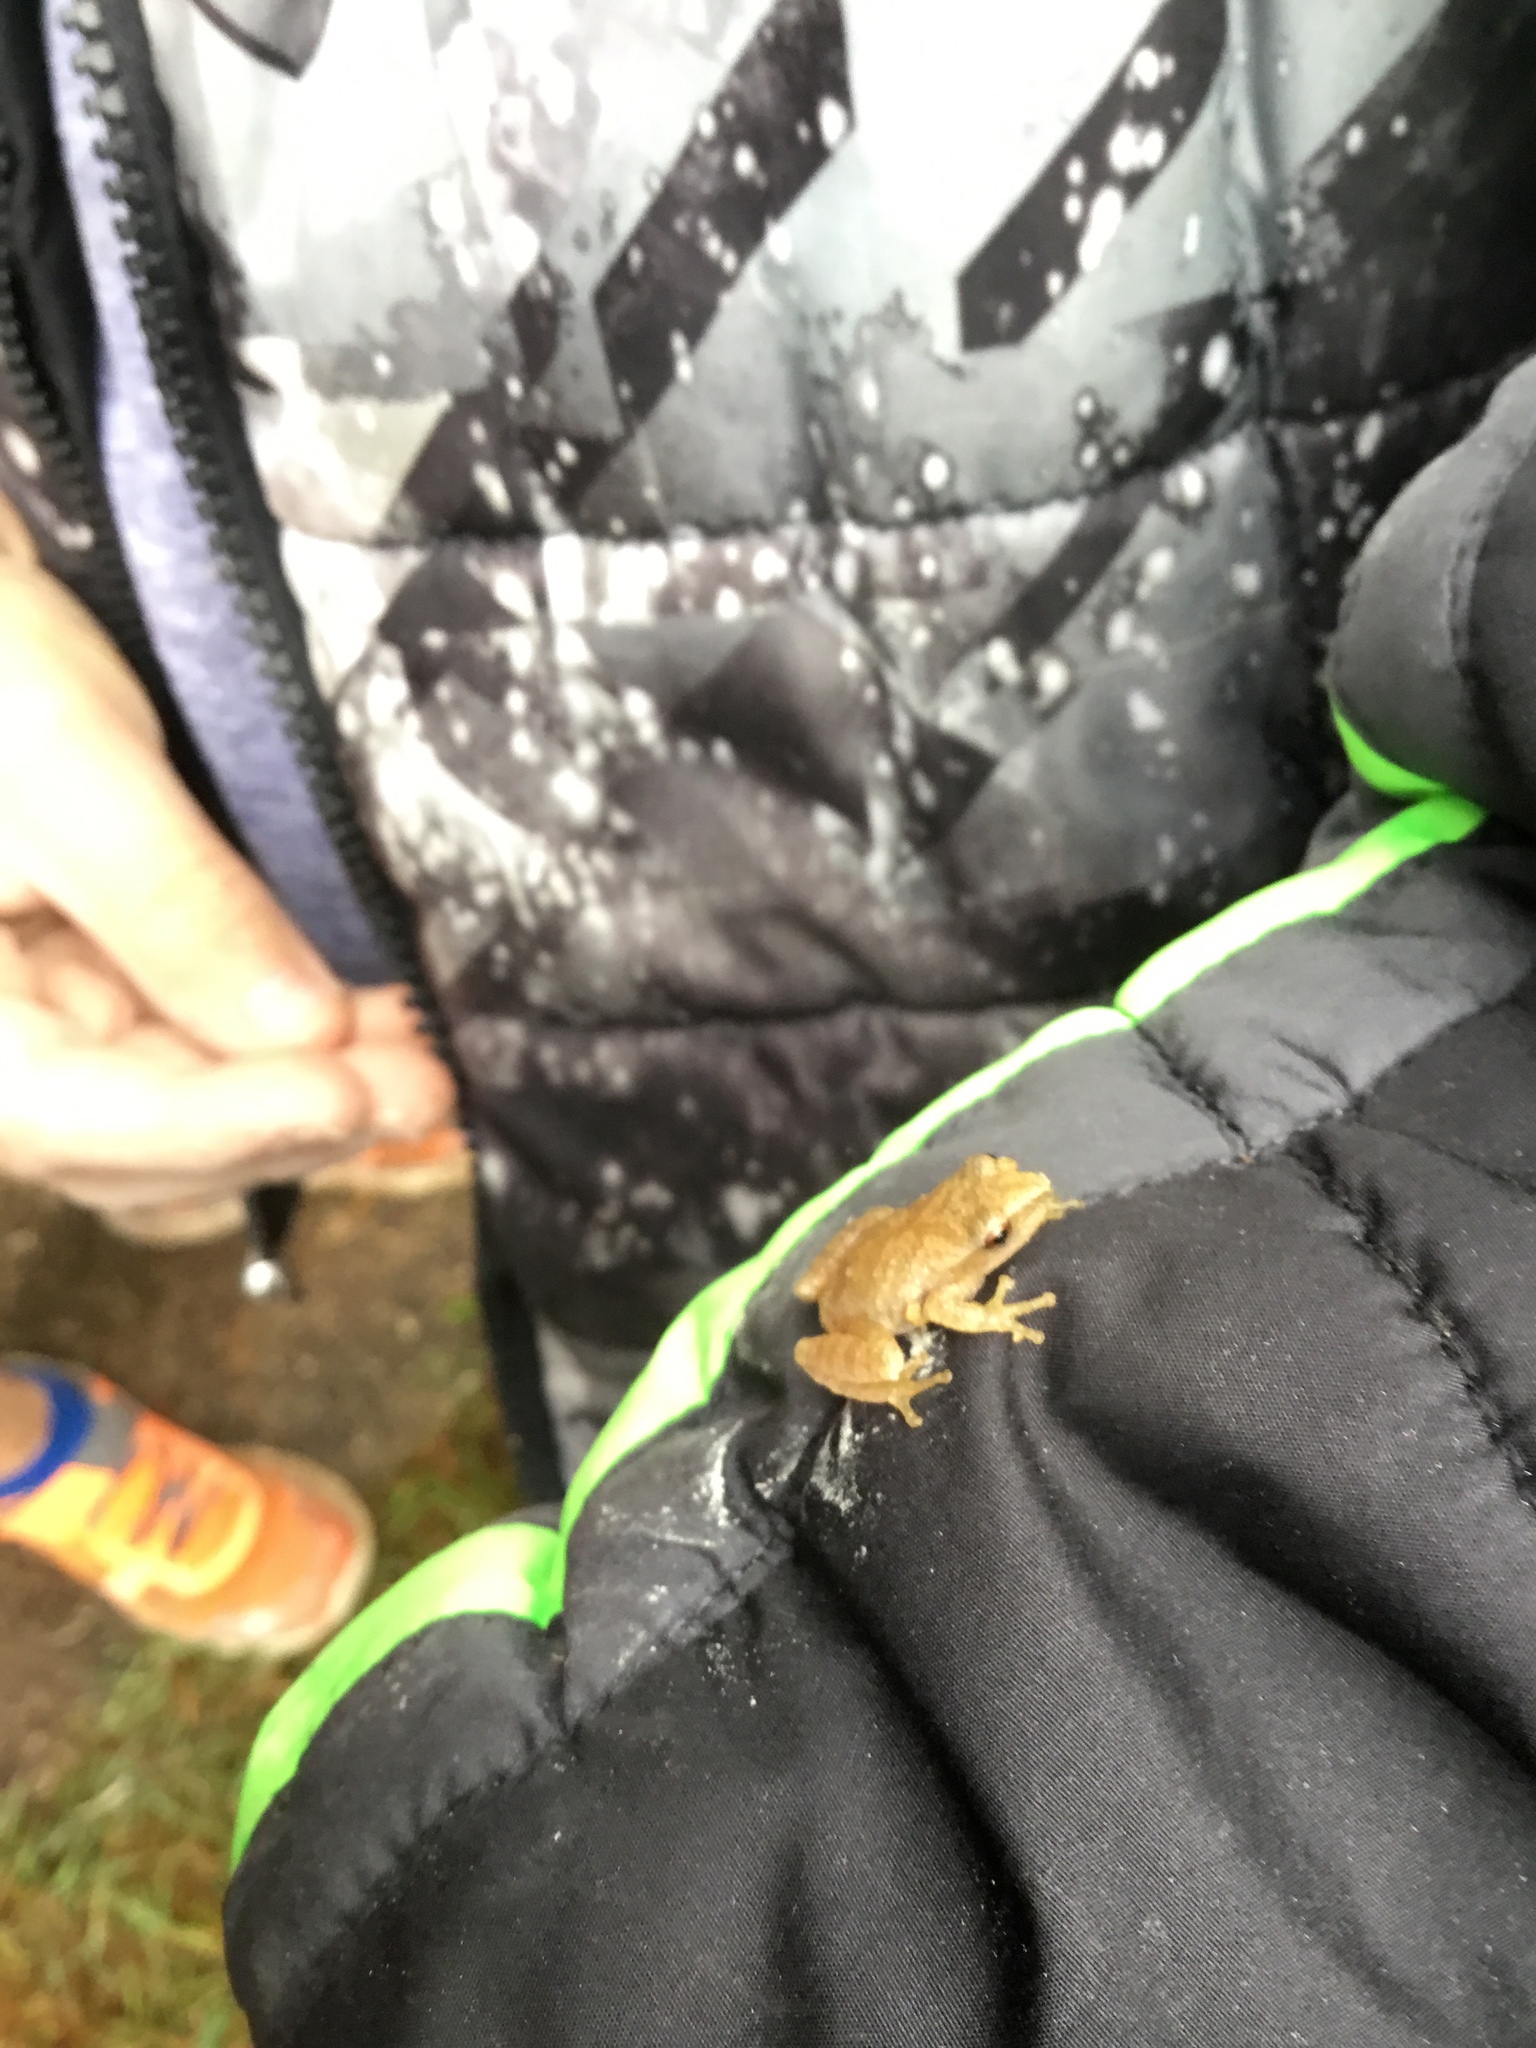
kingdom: Animalia
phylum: Chordata
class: Amphibia
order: Anura
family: Hylidae
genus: Pseudacris
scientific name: Pseudacris crucifer
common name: Spring peeper
